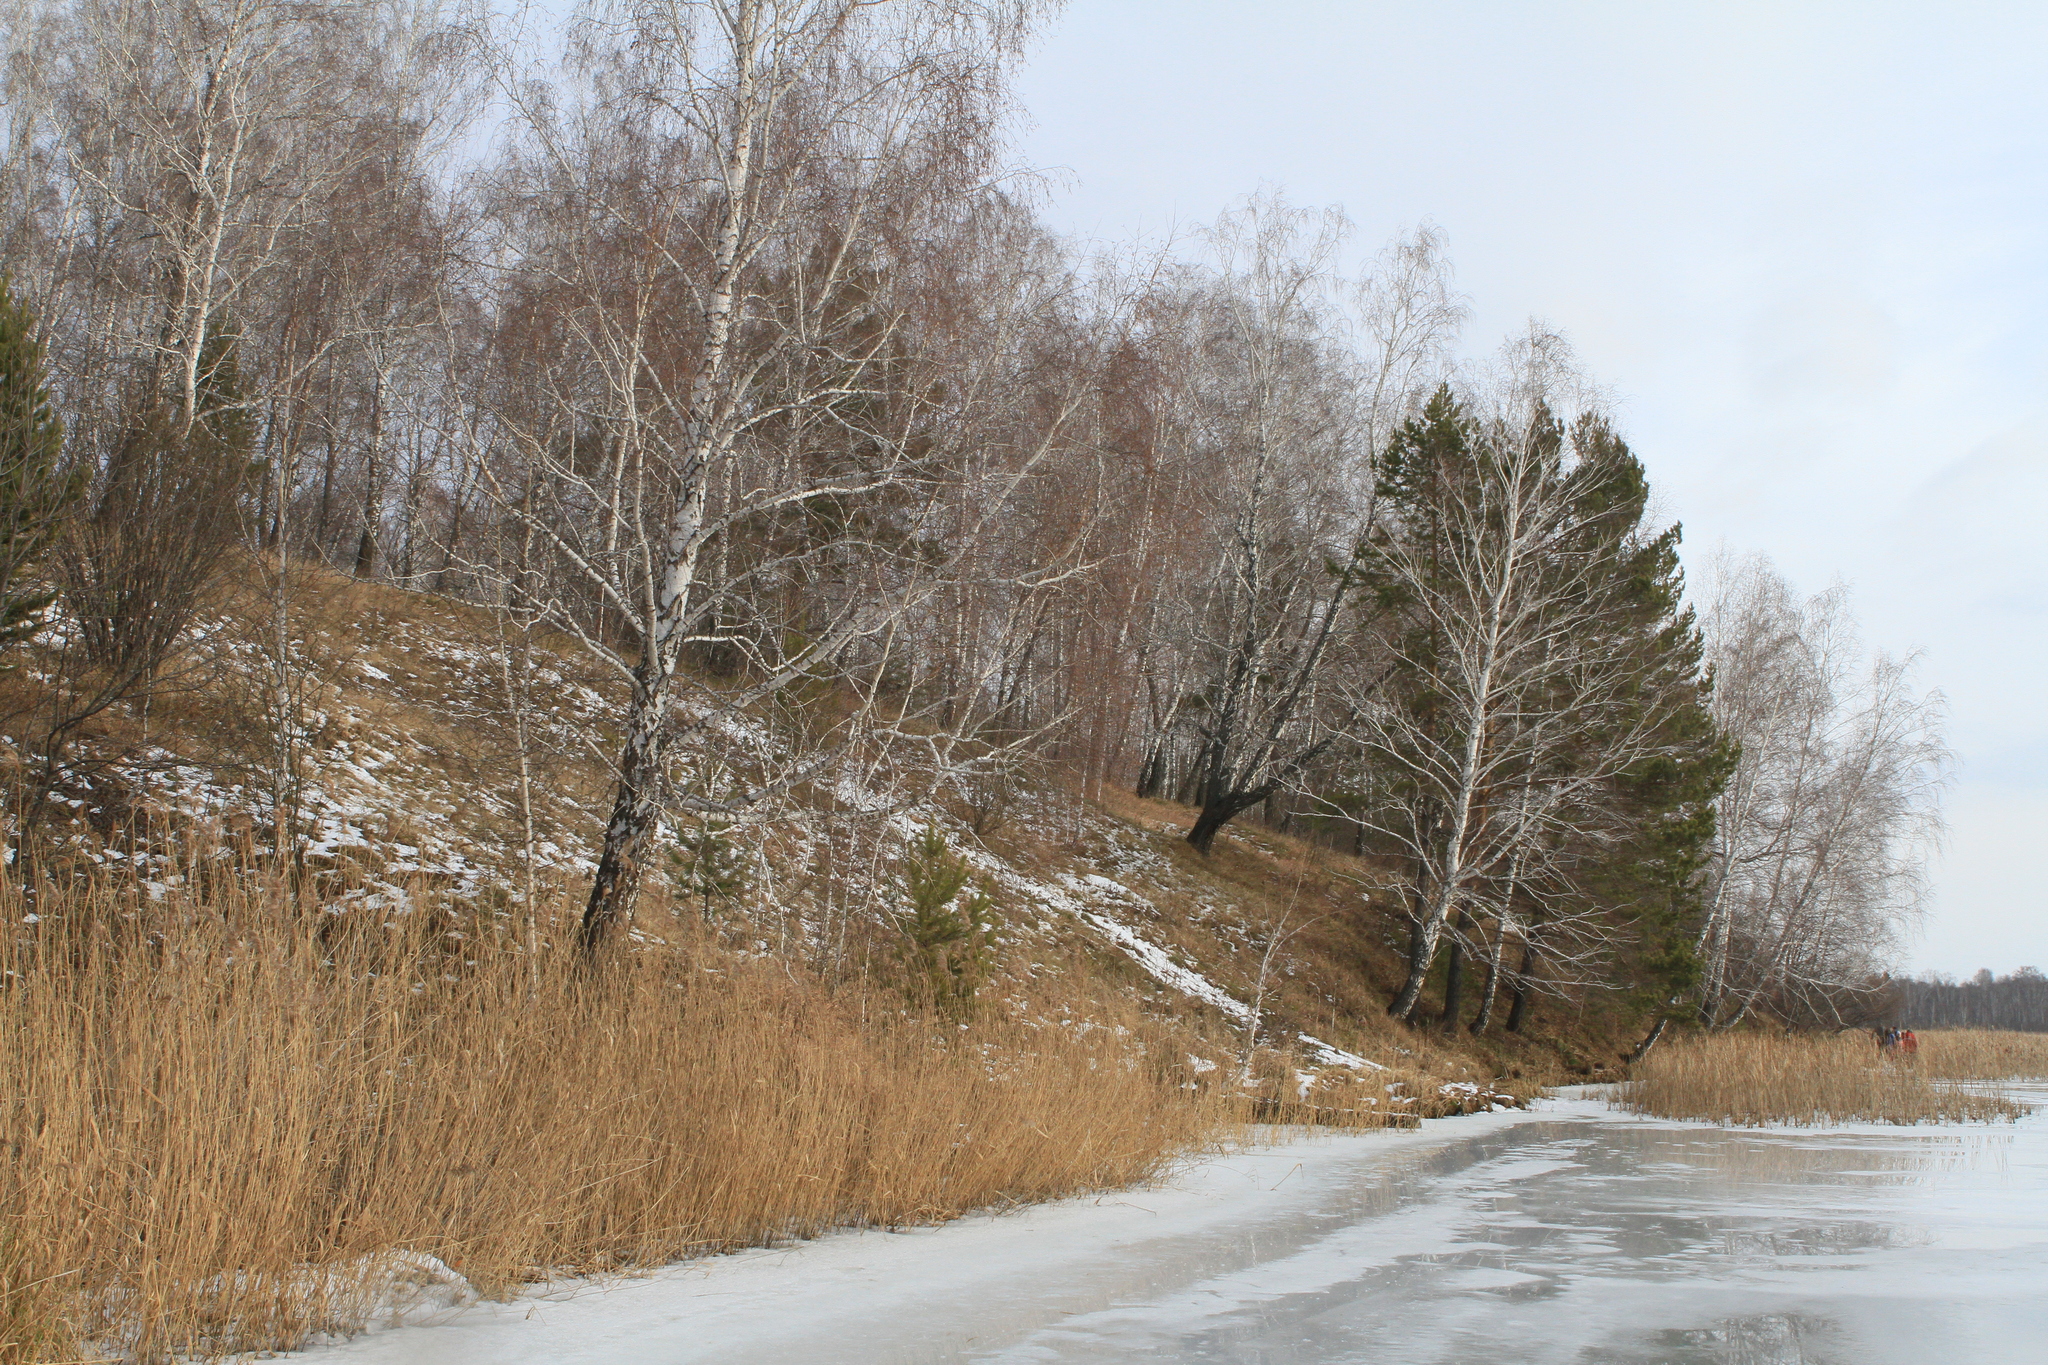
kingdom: Plantae
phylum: Tracheophyta
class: Pinopsida
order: Pinales
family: Pinaceae
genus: Pinus
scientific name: Pinus sylvestris
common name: Scots pine
